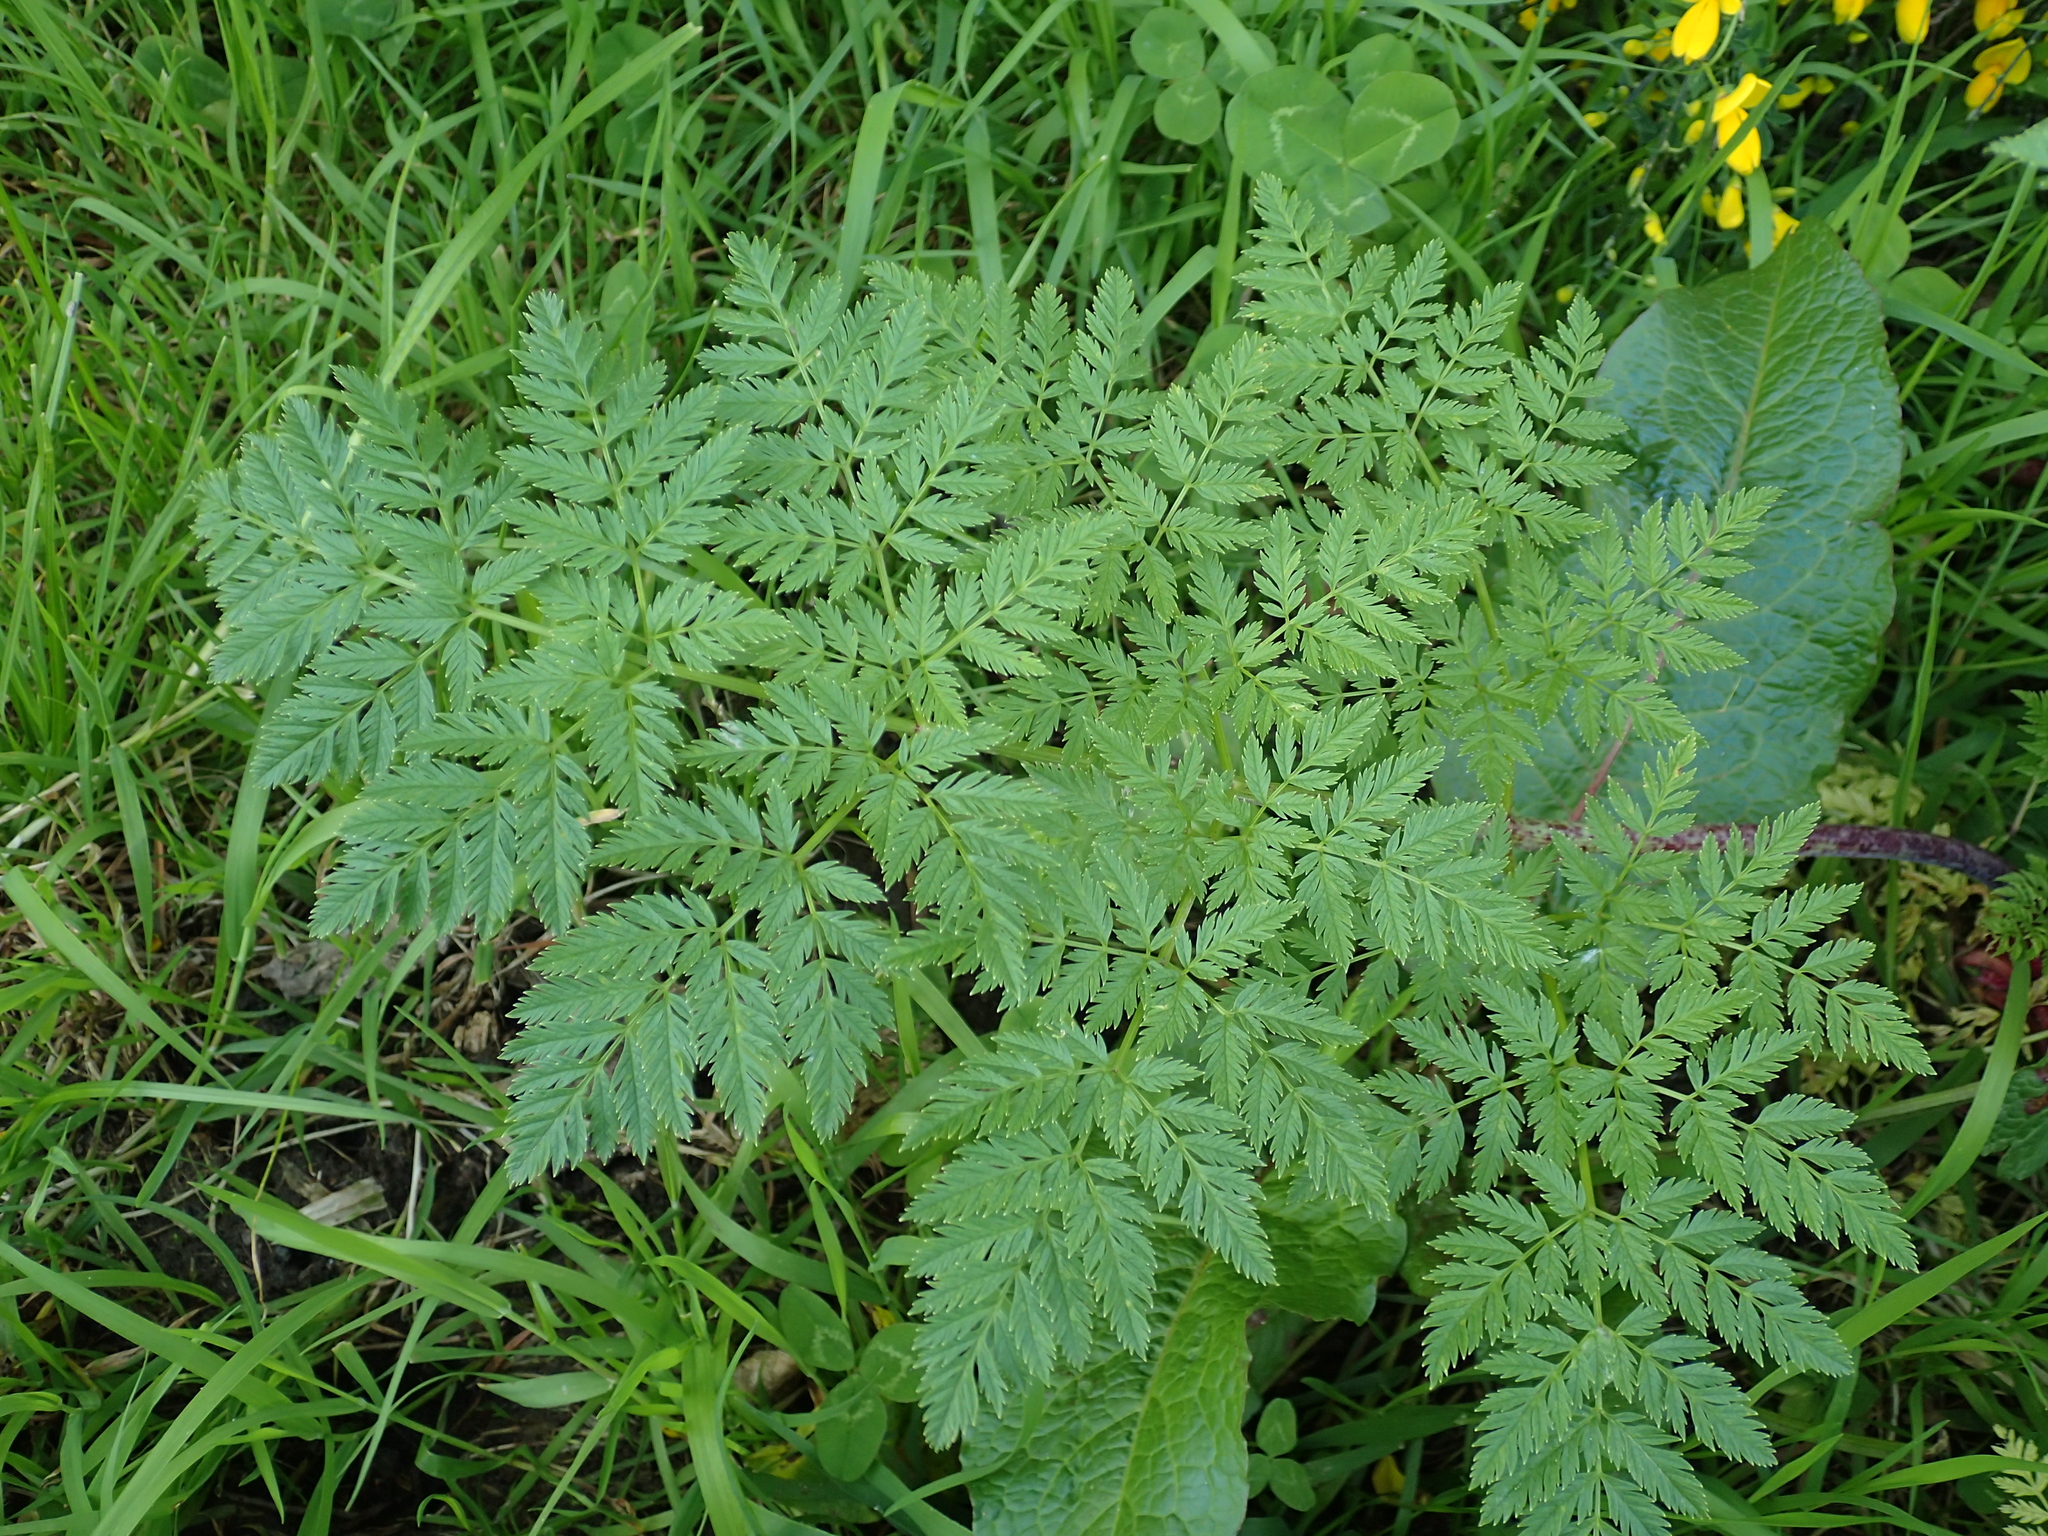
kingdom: Plantae
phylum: Tracheophyta
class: Magnoliopsida
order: Apiales
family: Apiaceae
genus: Conium
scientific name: Conium maculatum
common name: Hemlock
